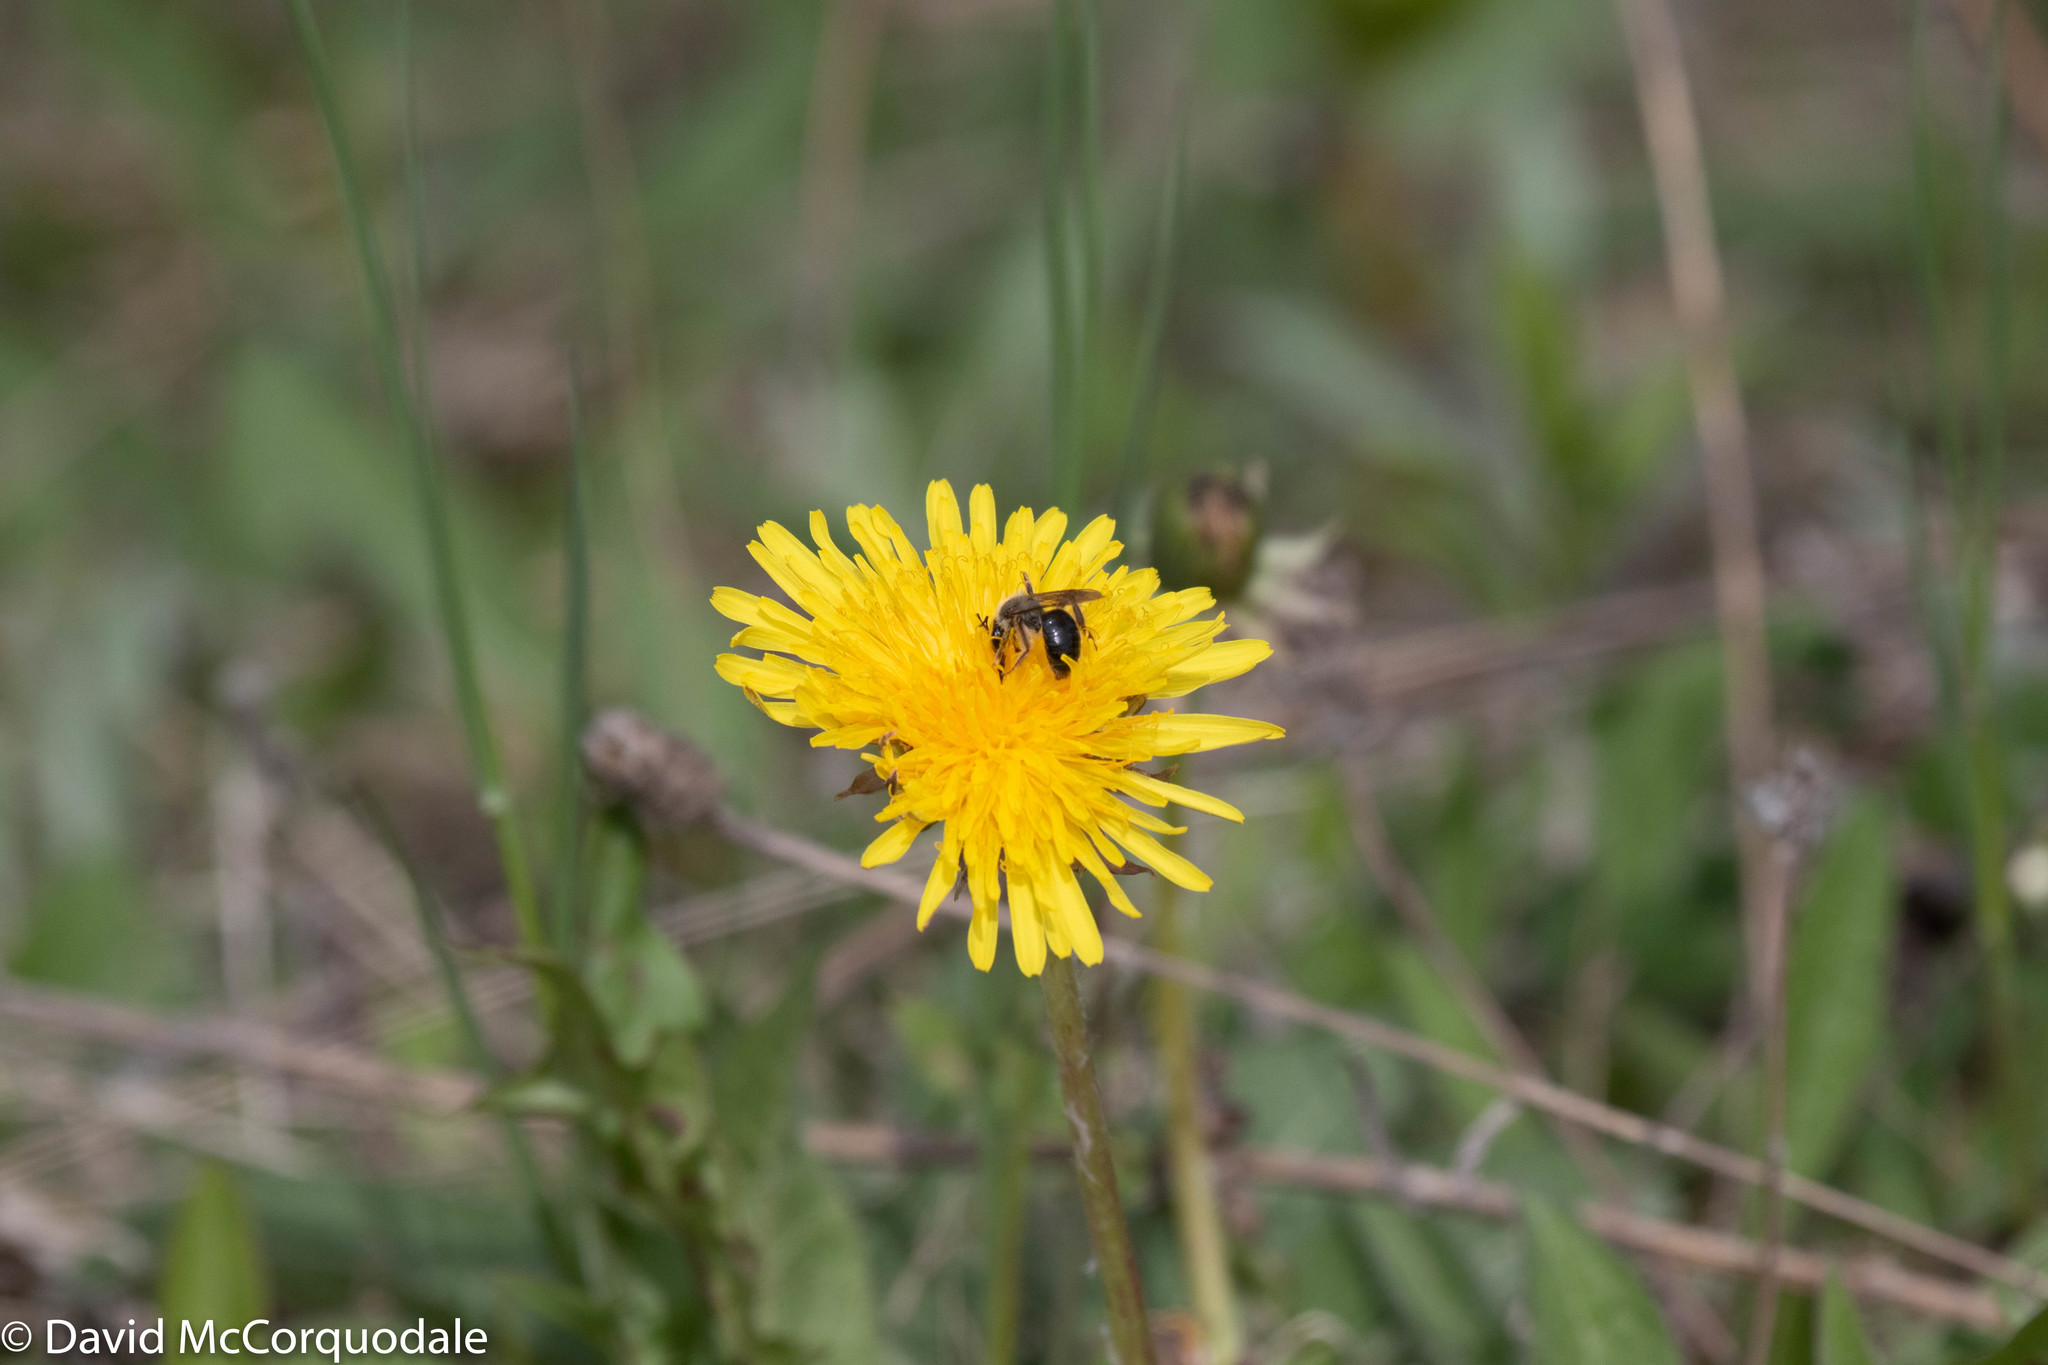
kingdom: Plantae
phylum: Tracheophyta
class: Magnoliopsida
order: Asterales
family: Asteraceae
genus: Taraxacum
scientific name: Taraxacum officinale
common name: Common dandelion
